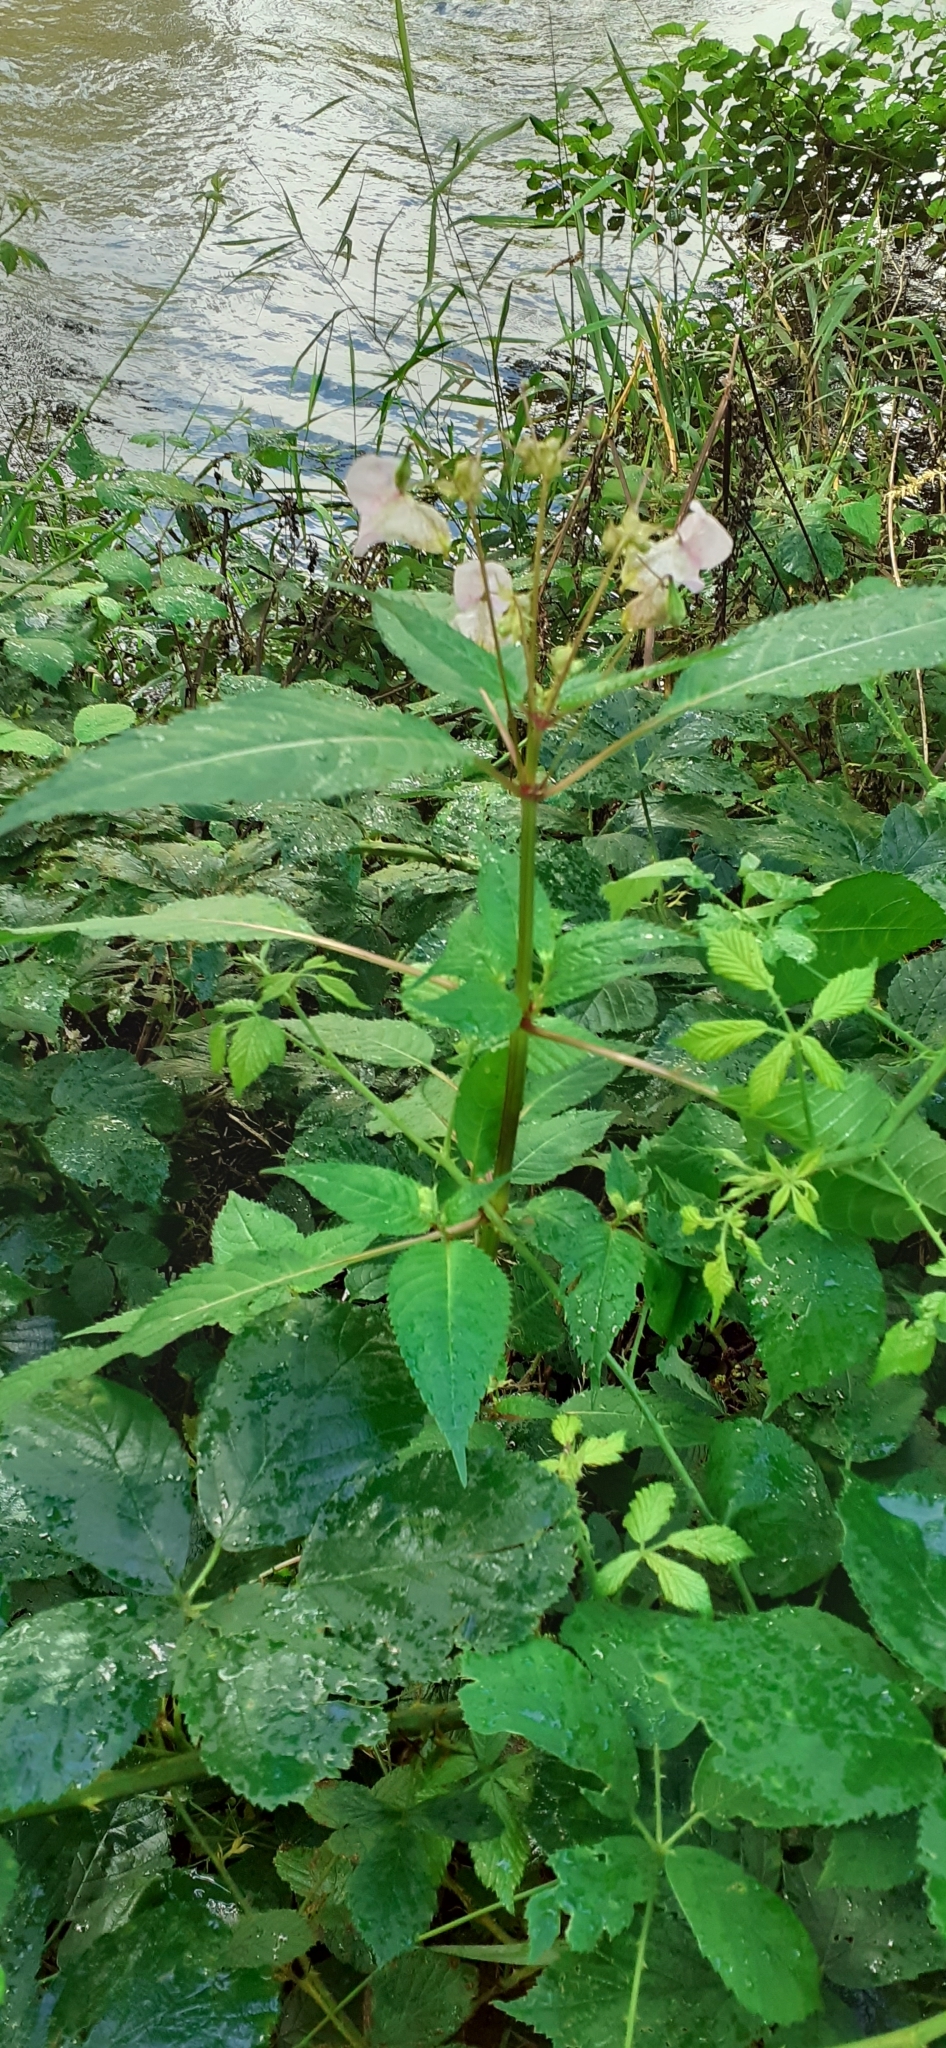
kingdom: Plantae
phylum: Tracheophyta
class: Magnoliopsida
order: Ericales
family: Balsaminaceae
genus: Impatiens
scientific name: Impatiens glandulifera
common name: Himalayan balsam
